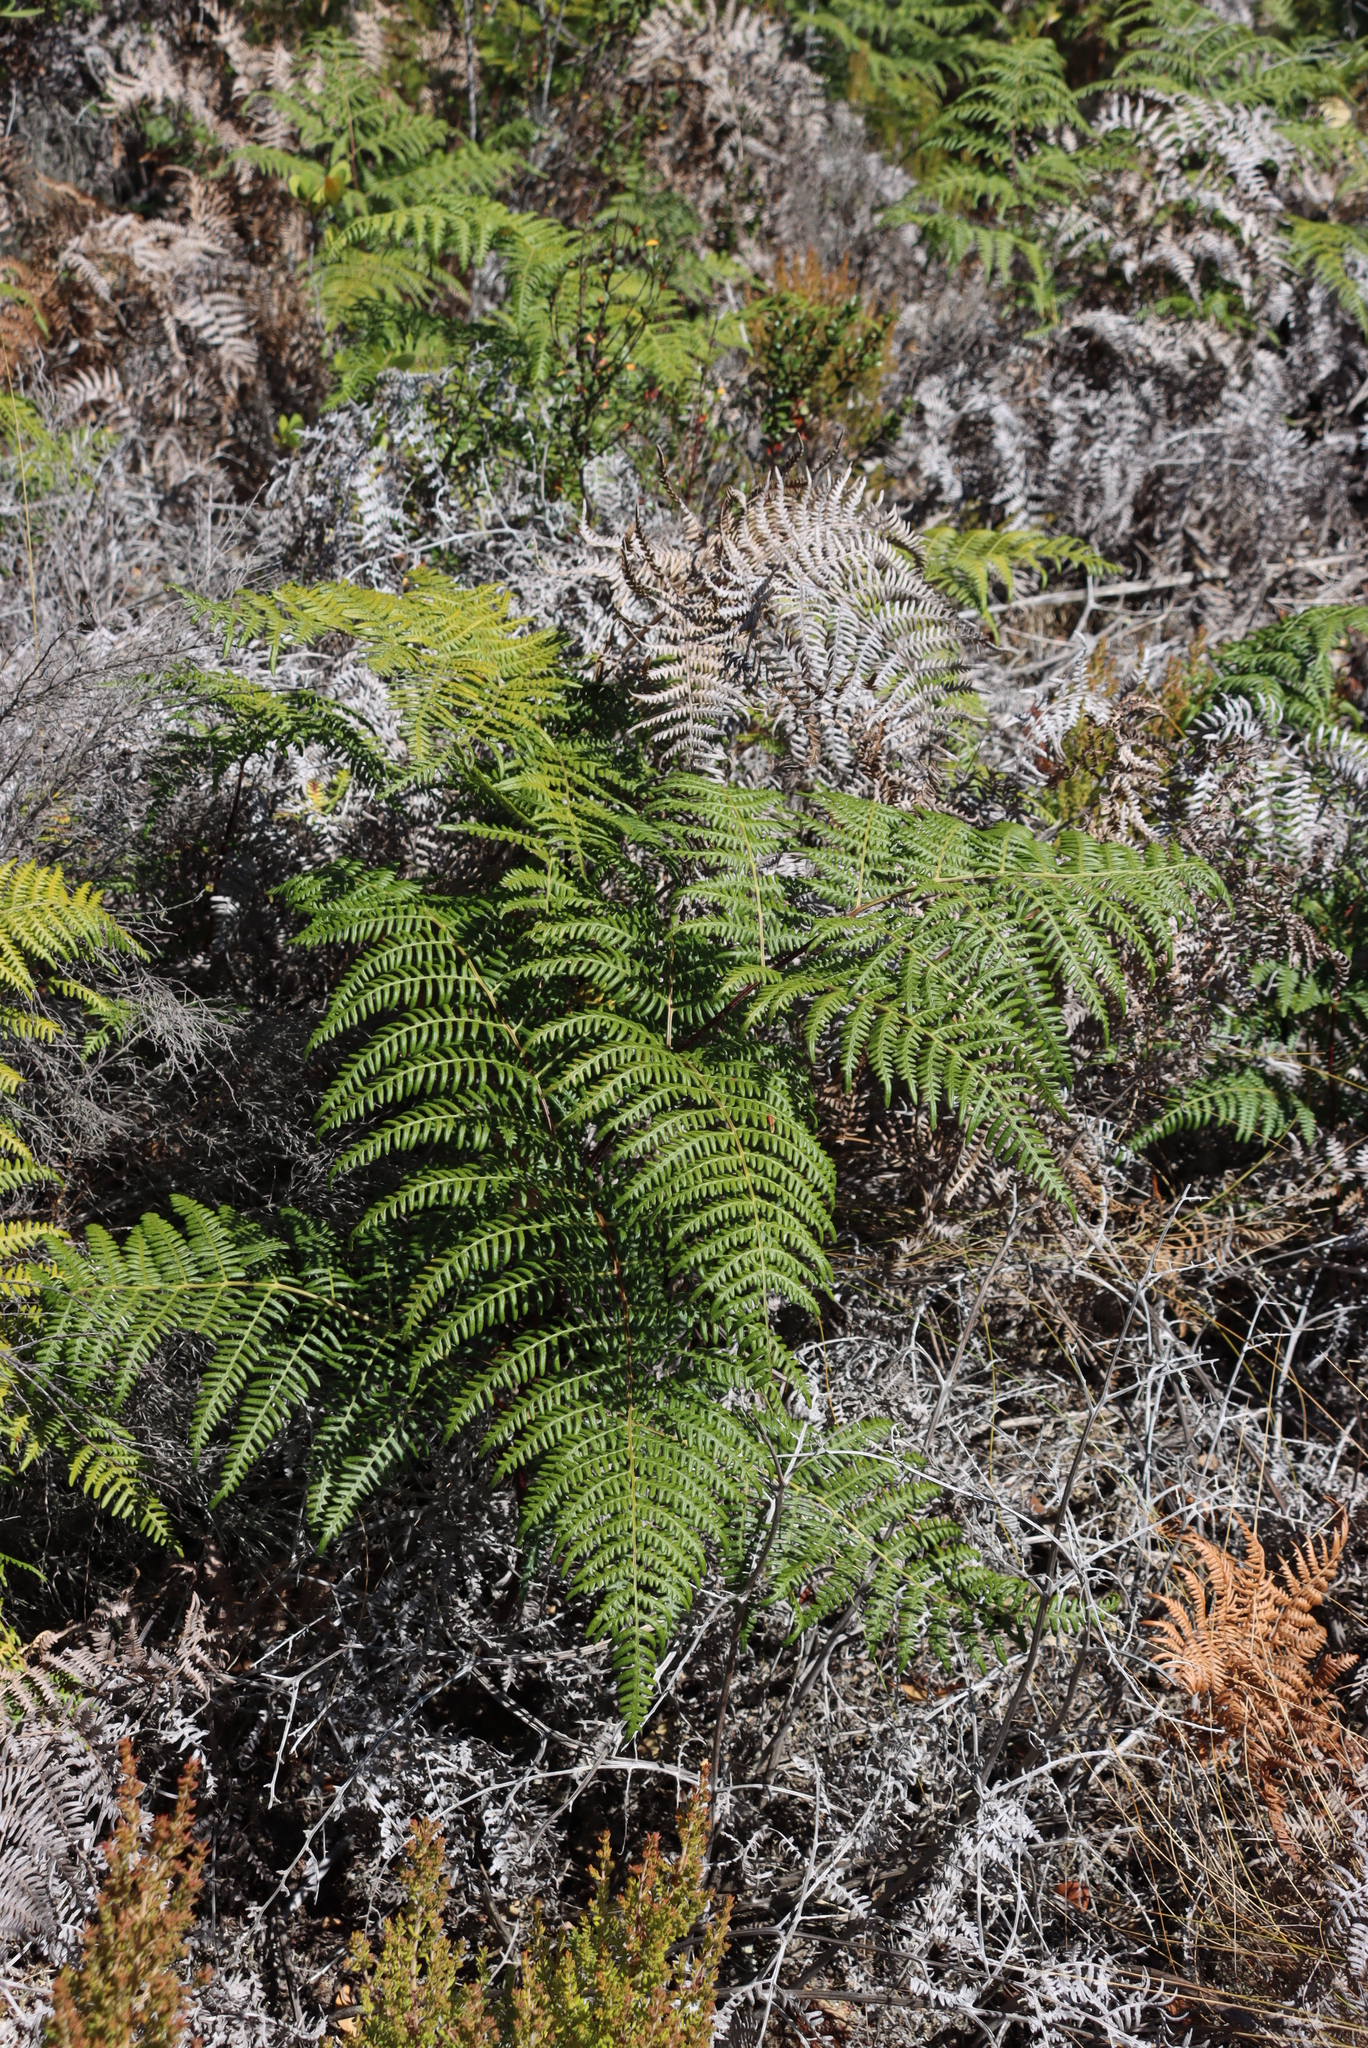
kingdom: Plantae
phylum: Tracheophyta
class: Polypodiopsida
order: Polypodiales
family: Dennstaedtiaceae
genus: Pteridium
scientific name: Pteridium aquilinum
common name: Bracken
